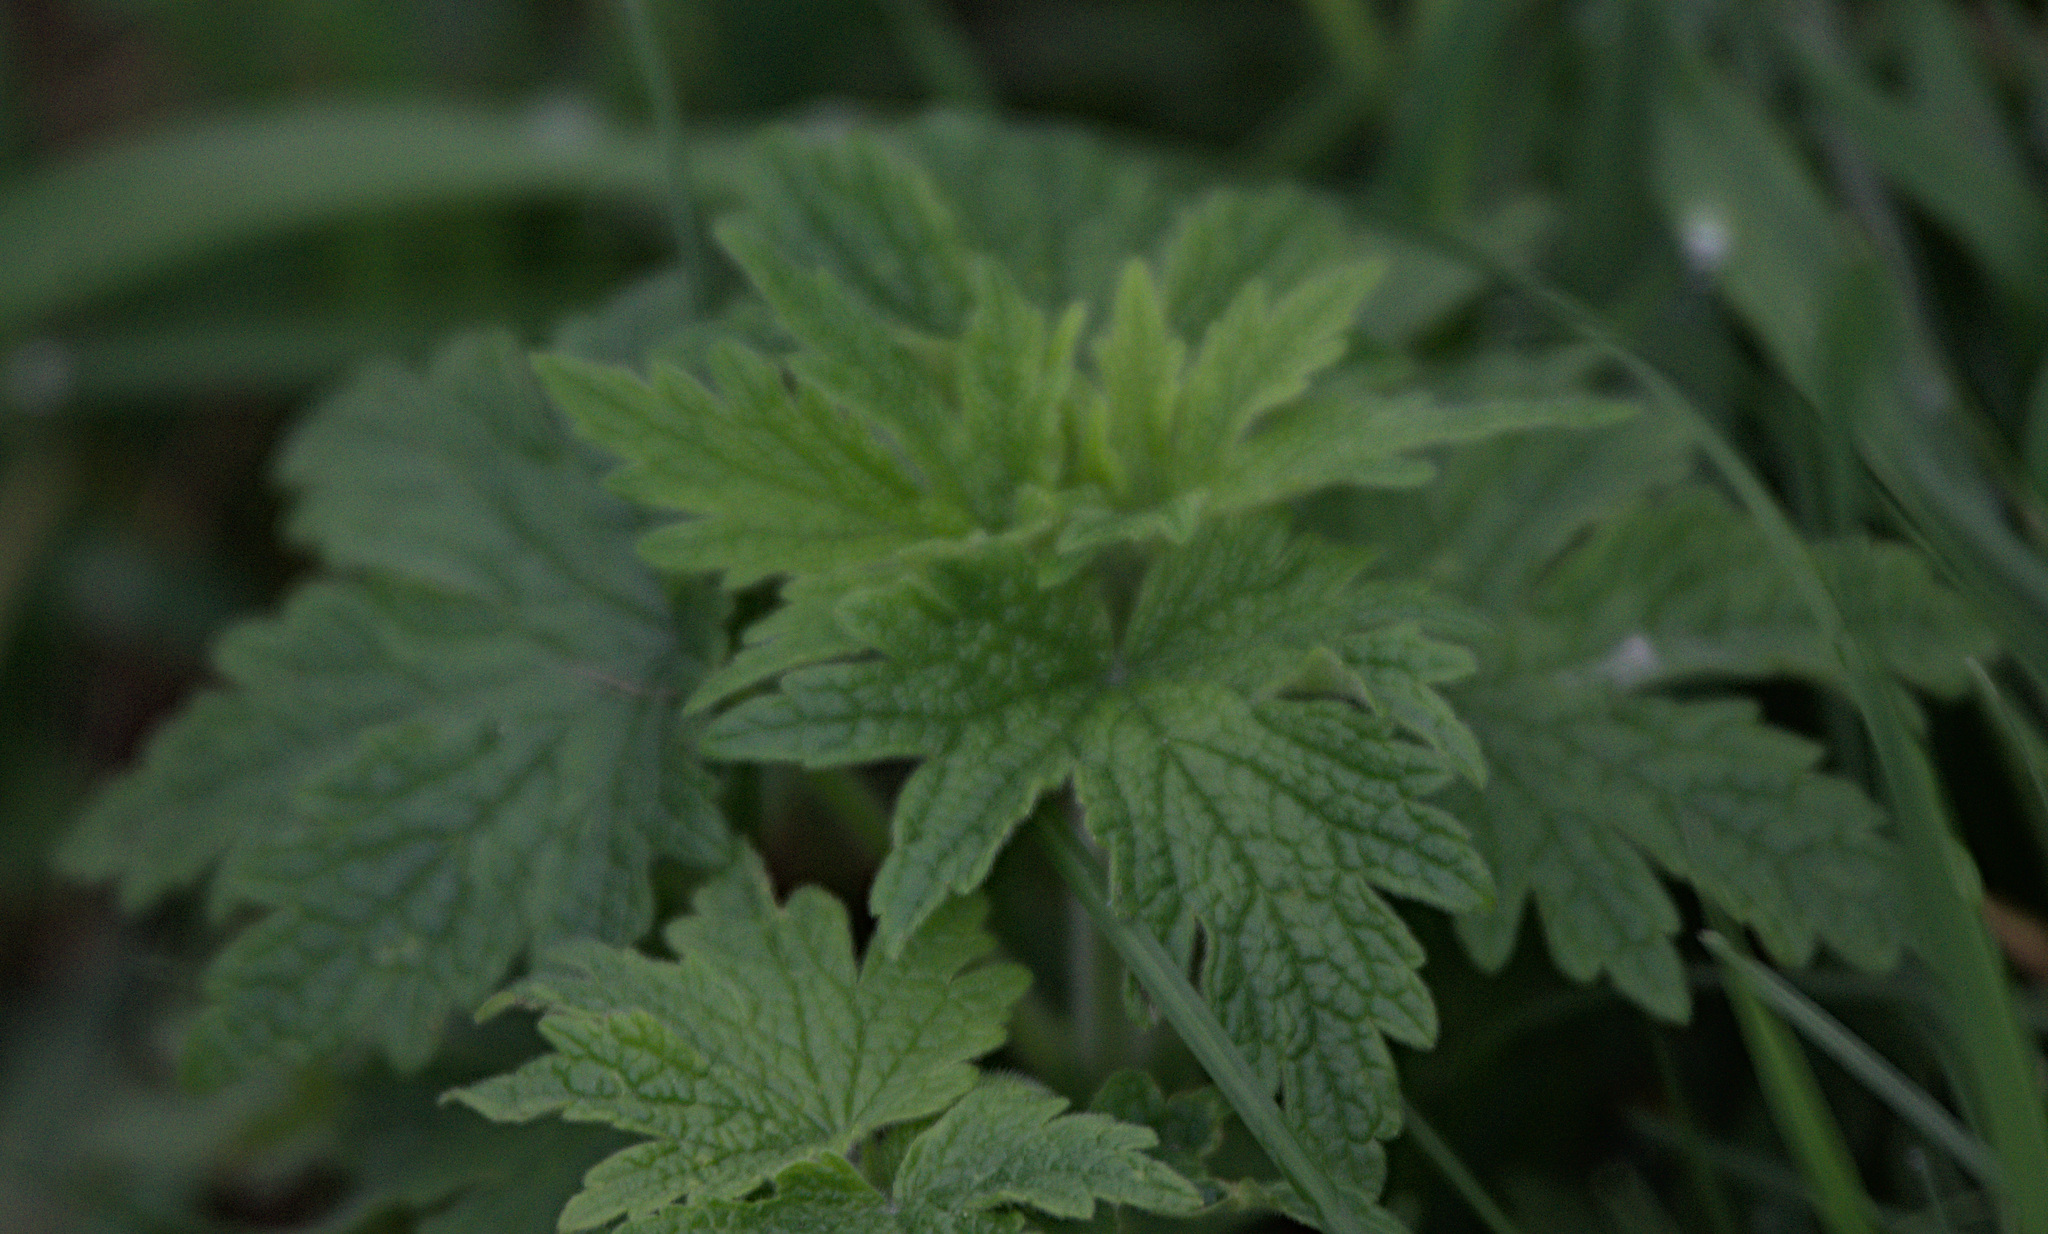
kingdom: Plantae
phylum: Tracheophyta
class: Magnoliopsida
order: Lamiales
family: Lamiaceae
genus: Leonurus
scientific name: Leonurus quinquelobatus
